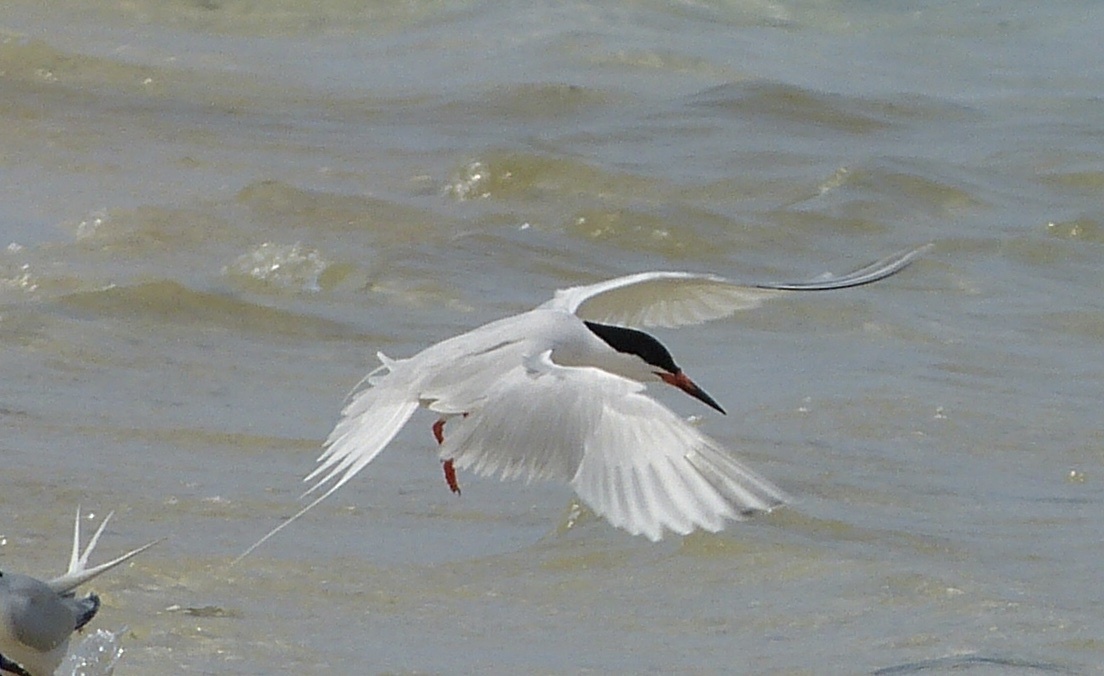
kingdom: Animalia
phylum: Chordata
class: Aves
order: Charadriiformes
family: Laridae
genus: Sterna
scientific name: Sterna dougallii
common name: Roseate tern
